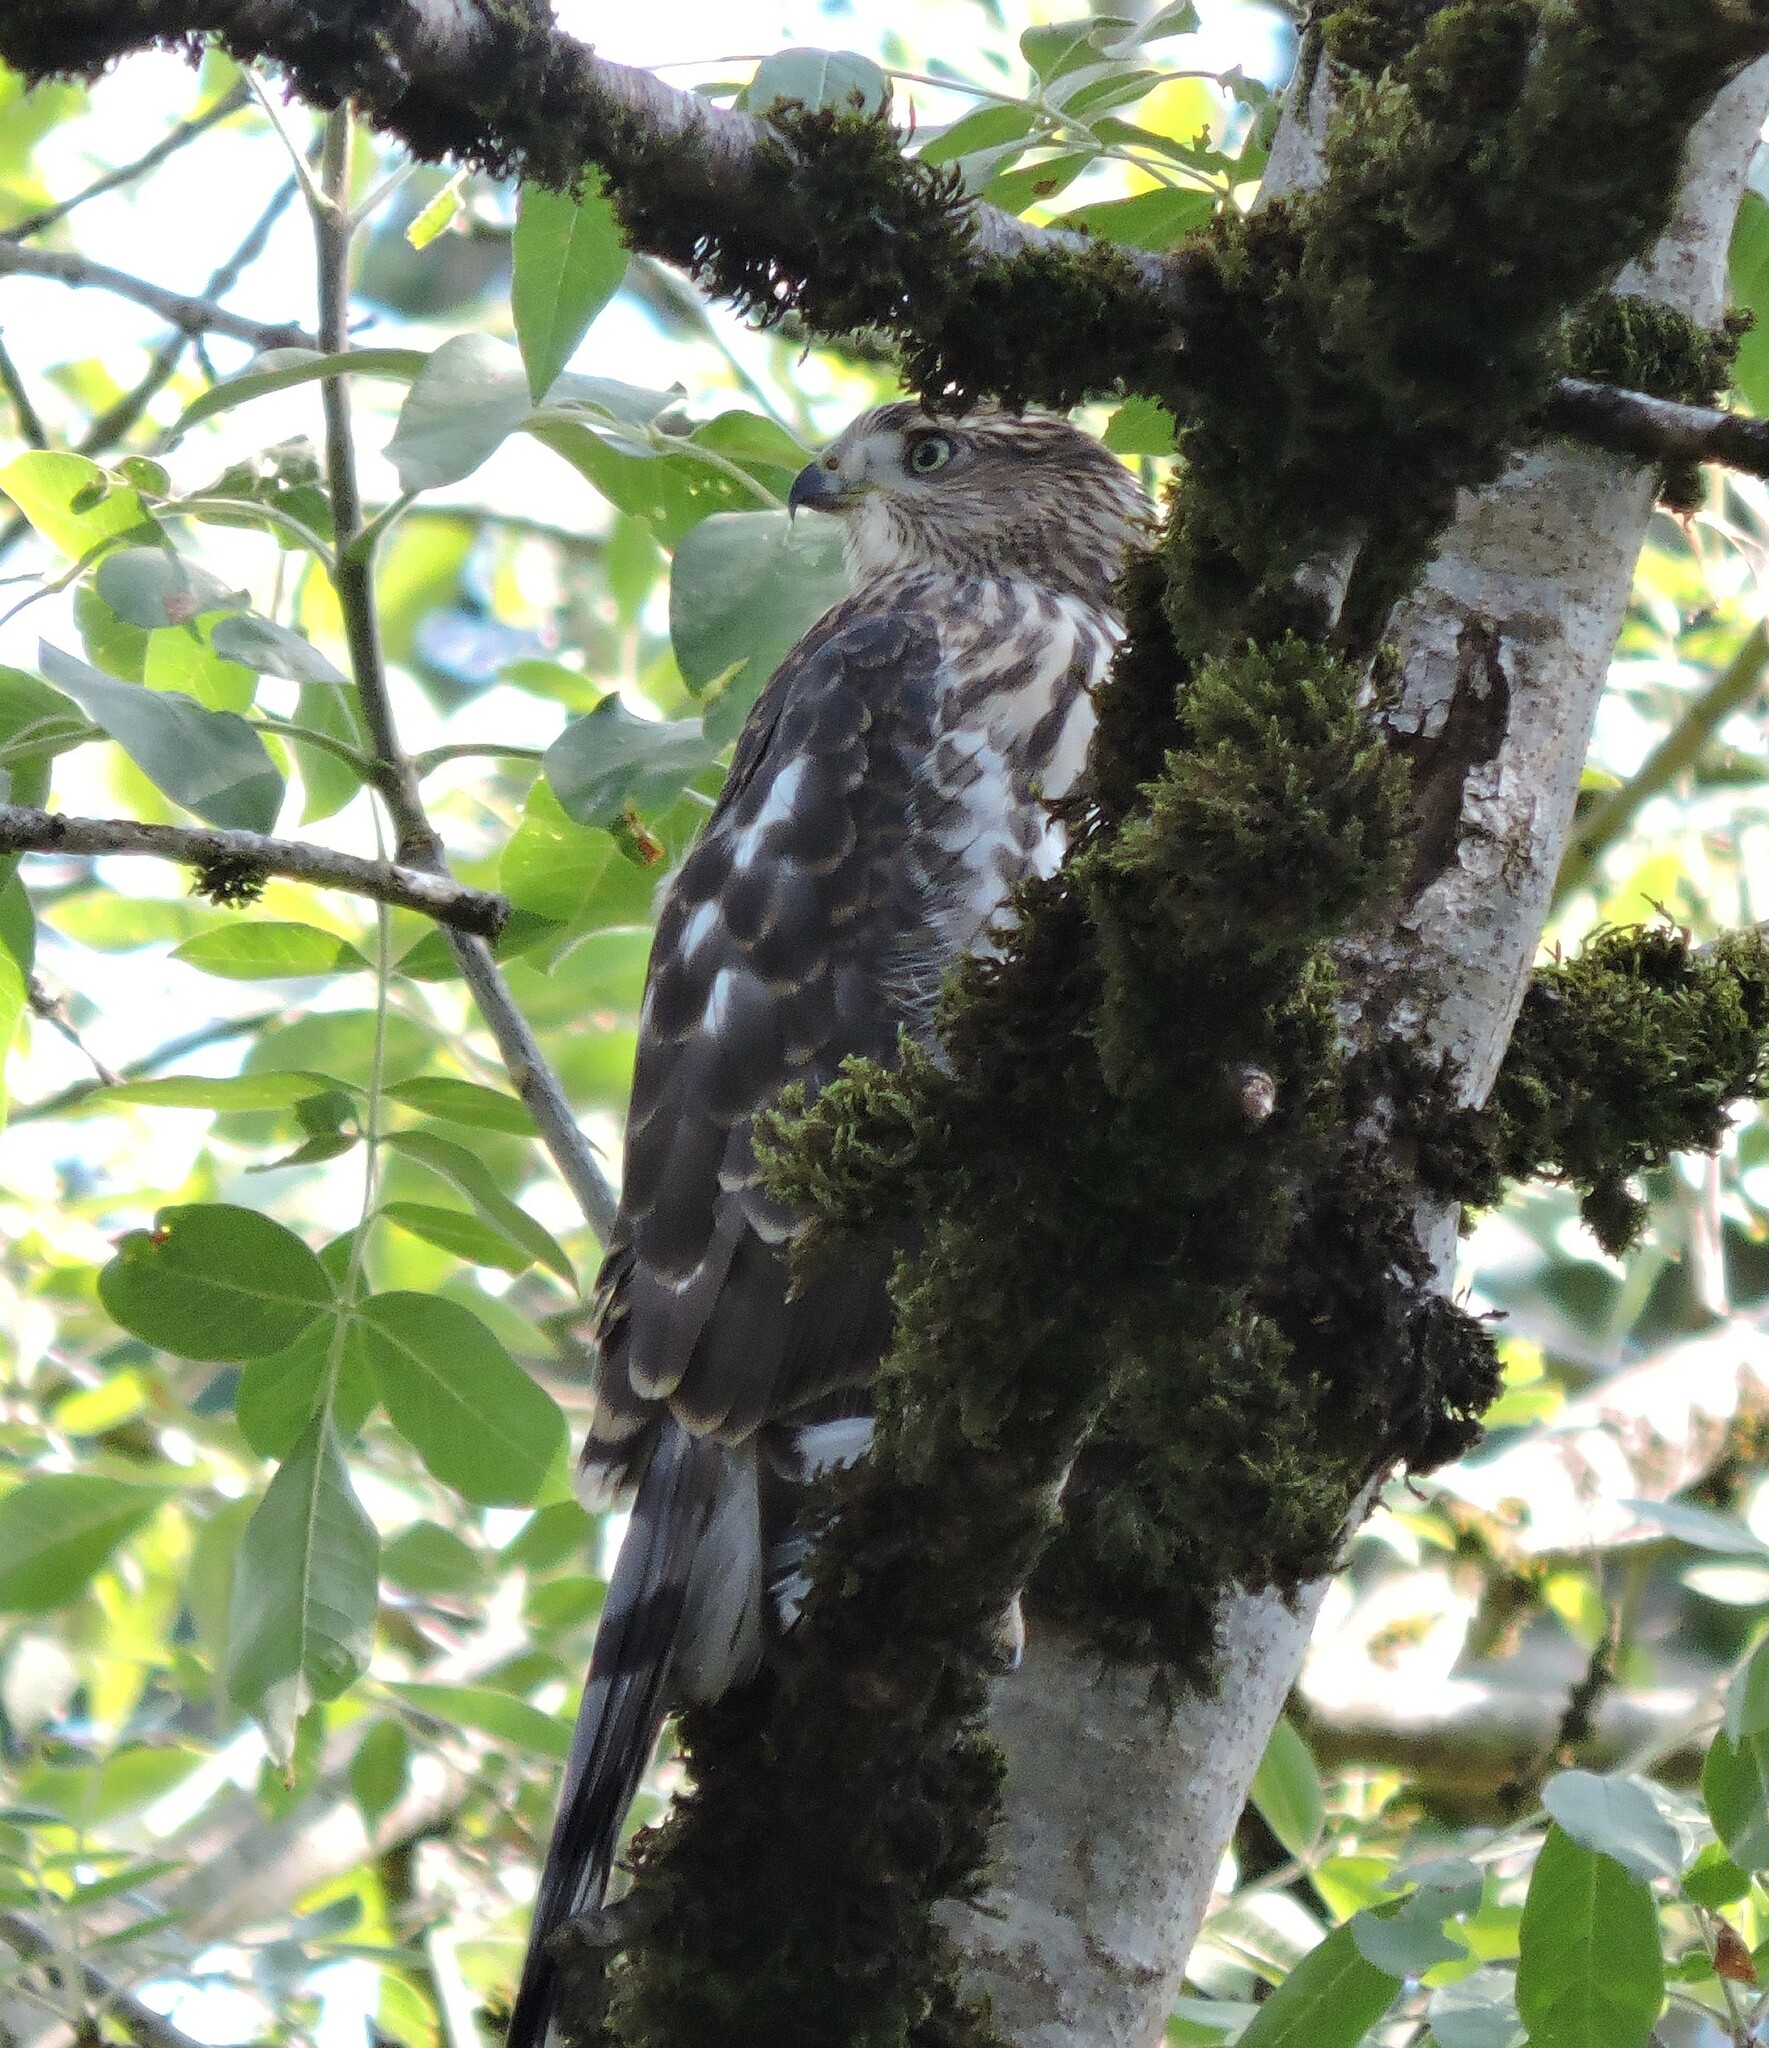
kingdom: Animalia
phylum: Chordata
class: Aves
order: Accipitriformes
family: Accipitridae
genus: Accipiter
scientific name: Accipiter cooperii
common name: Cooper's hawk
